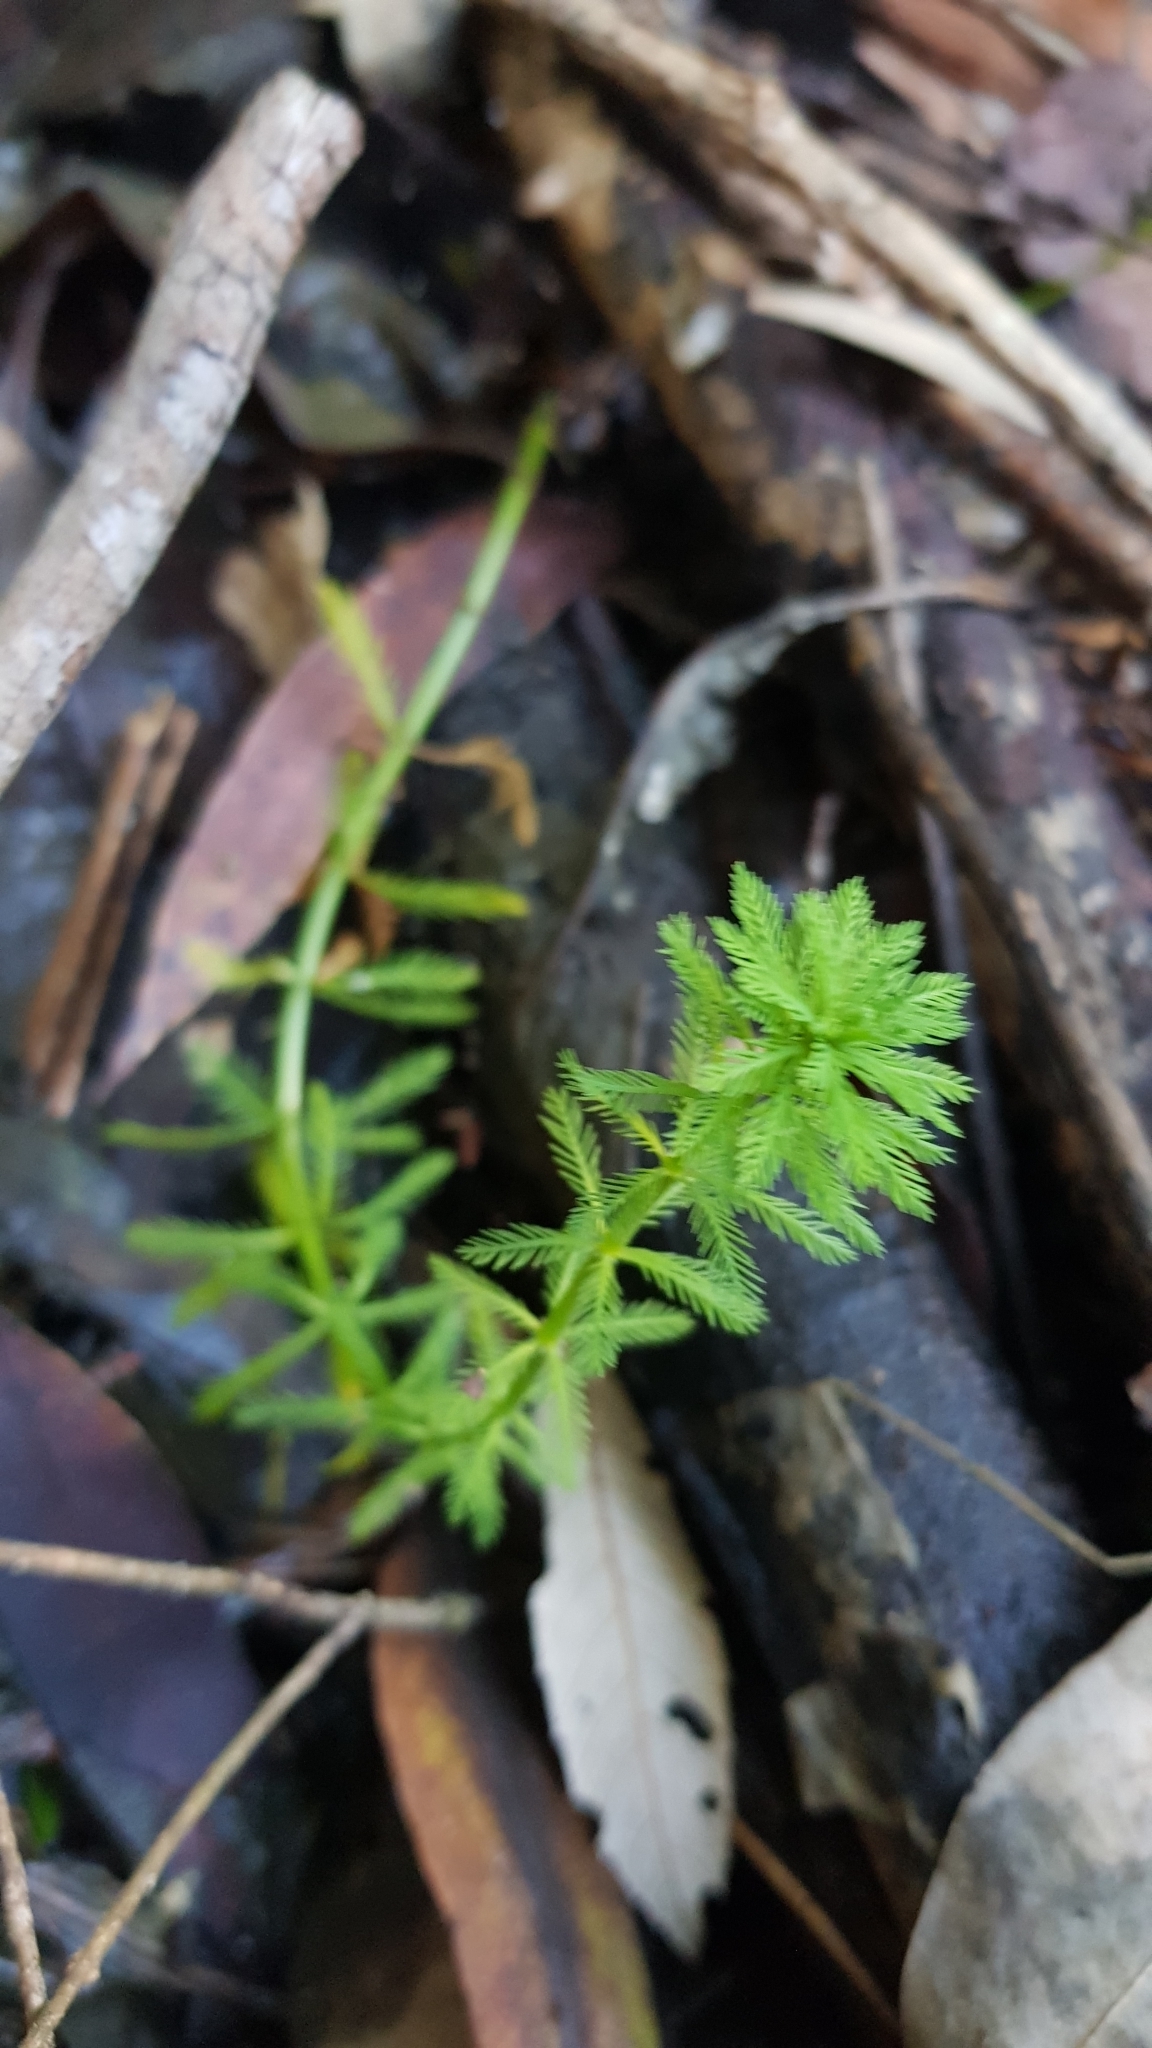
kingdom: Plantae
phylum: Tracheophyta
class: Magnoliopsida
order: Saxifragales
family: Haloragaceae
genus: Myriophyllum
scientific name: Myriophyllum aquaticum
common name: Parrot's feather
